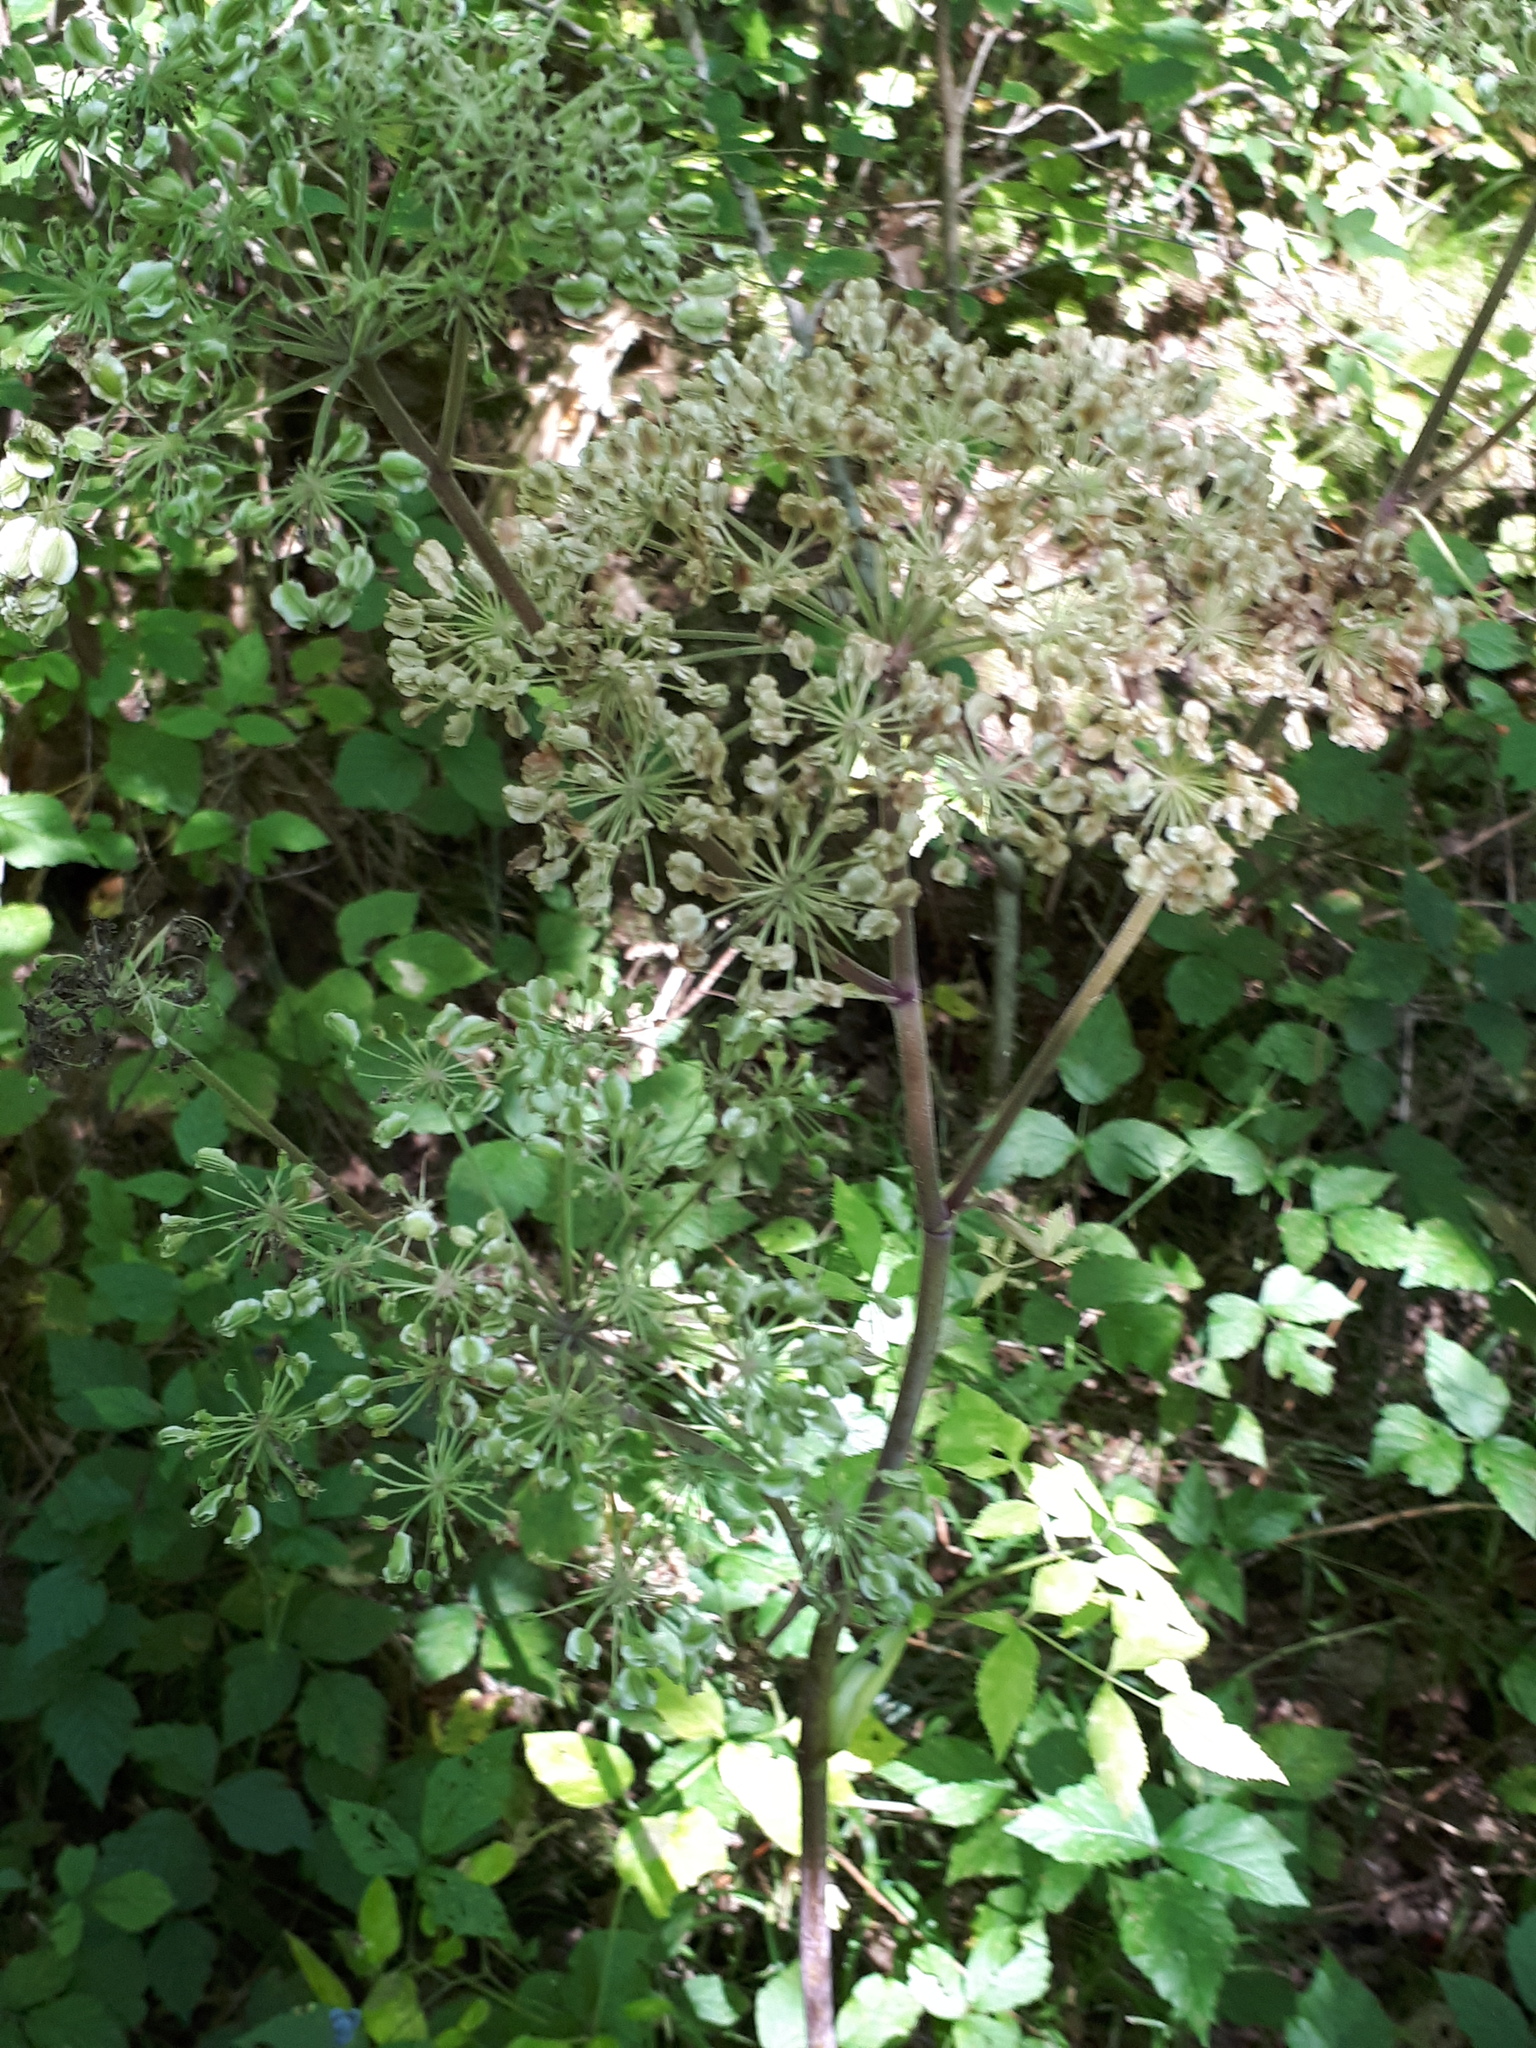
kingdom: Plantae
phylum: Tracheophyta
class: Magnoliopsida
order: Apiales
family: Apiaceae
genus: Angelica
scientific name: Angelica sylvestris
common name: Wild angelica
